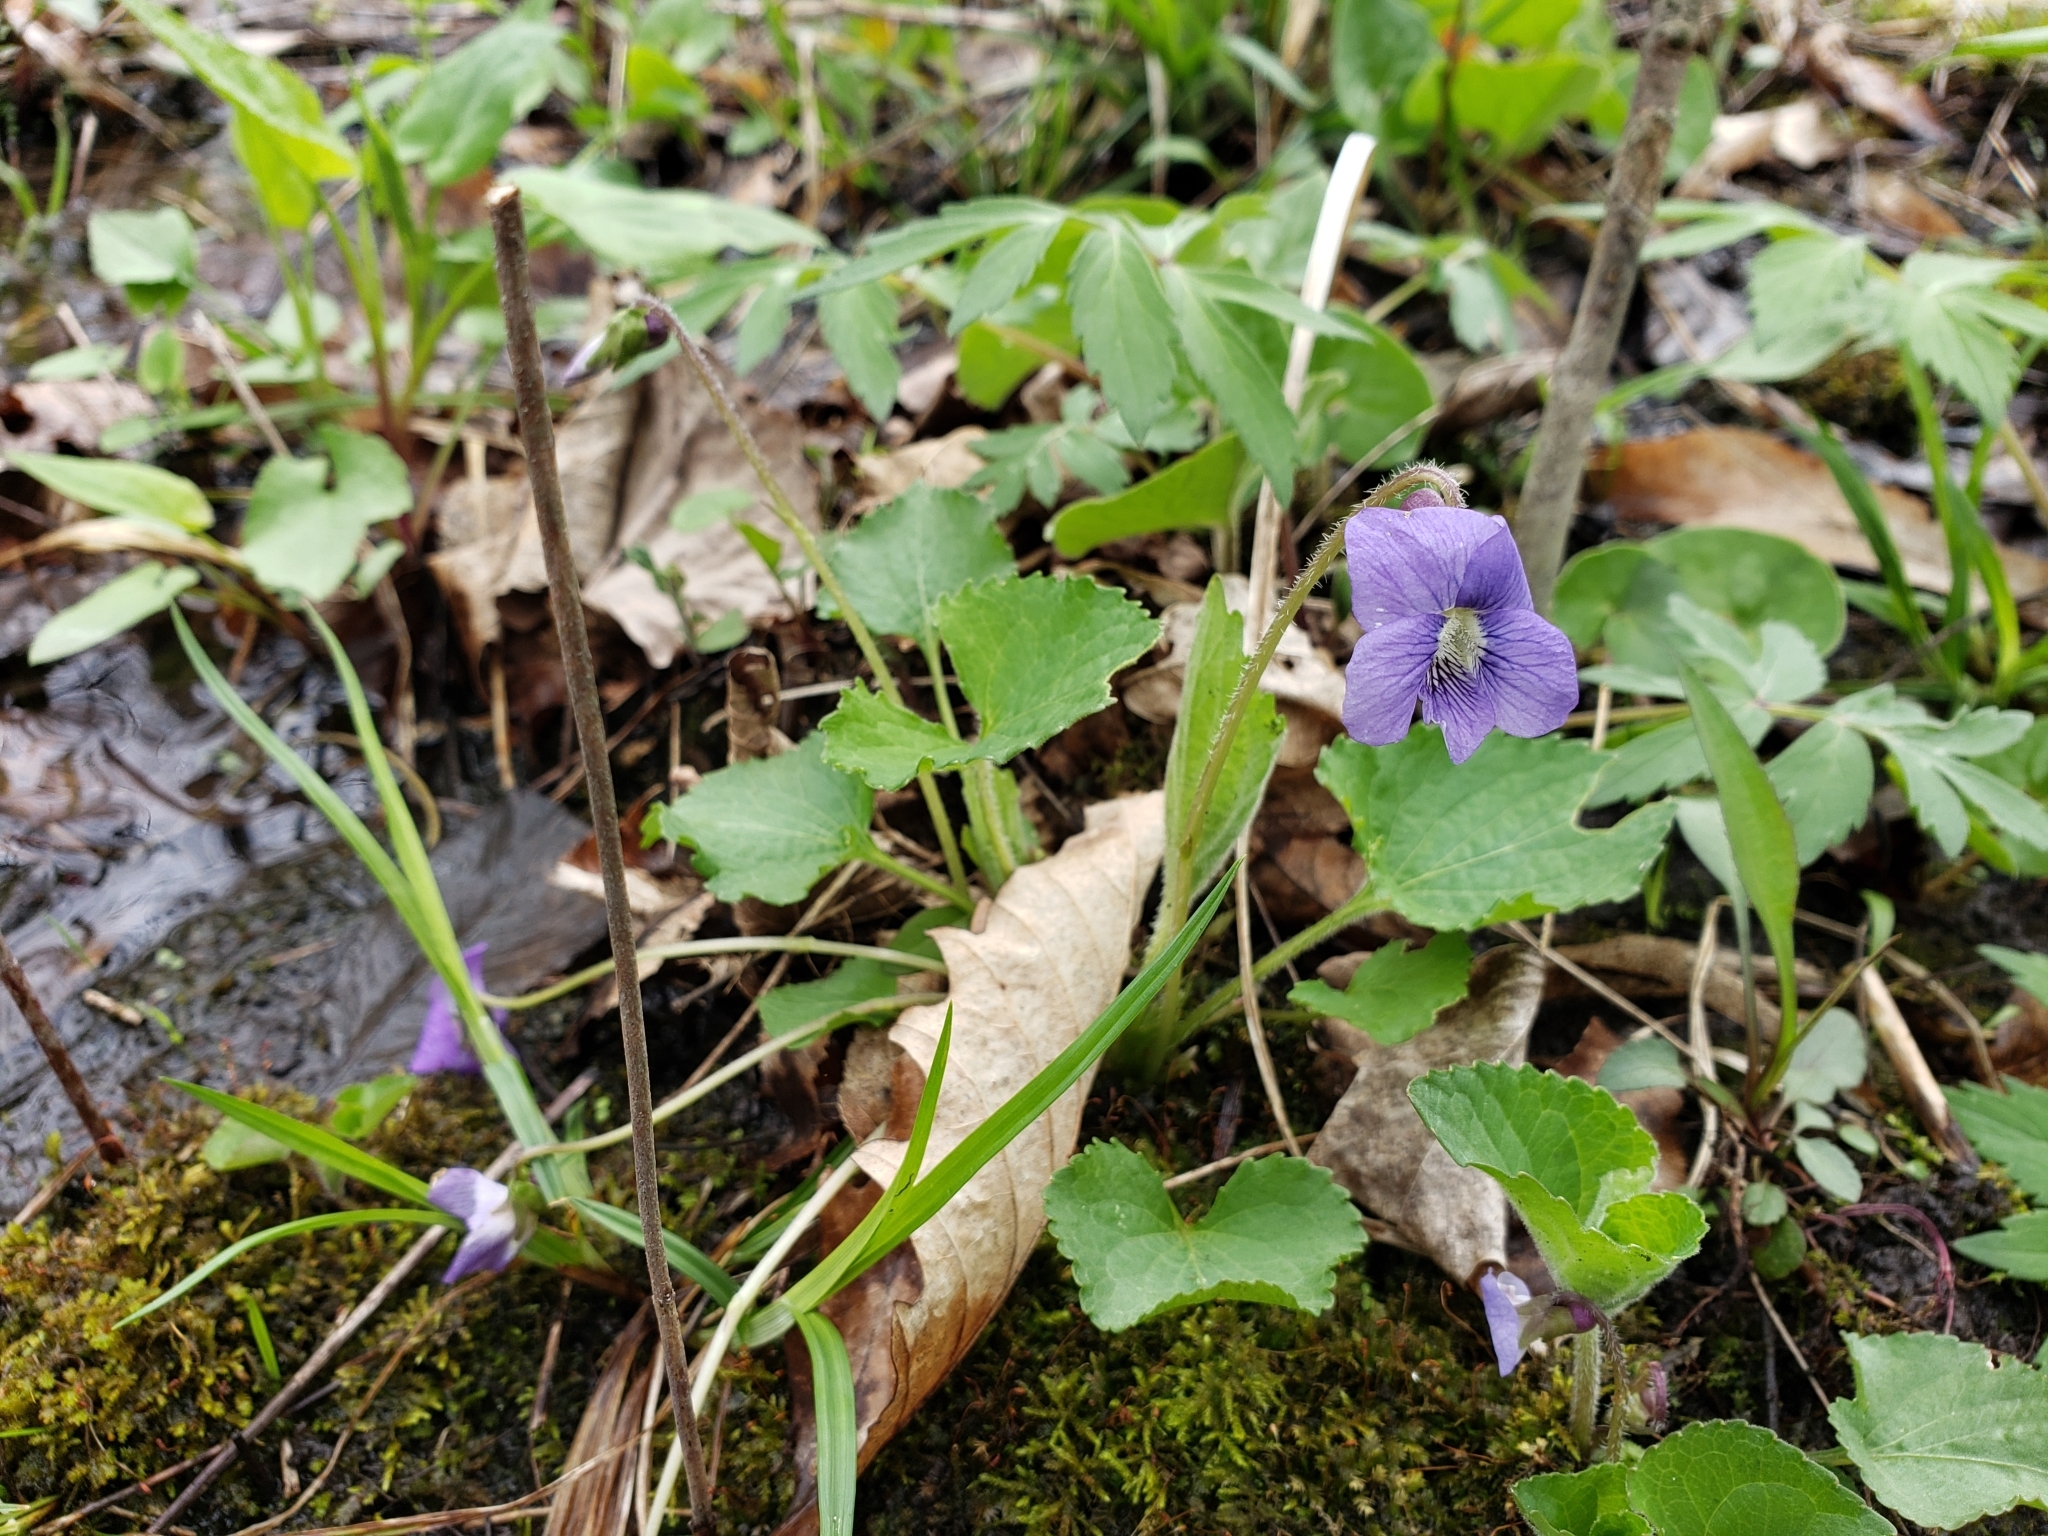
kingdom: Plantae
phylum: Tracheophyta
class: Magnoliopsida
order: Malpighiales
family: Violaceae
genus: Viola
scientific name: Viola sororia
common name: Dooryard violet
